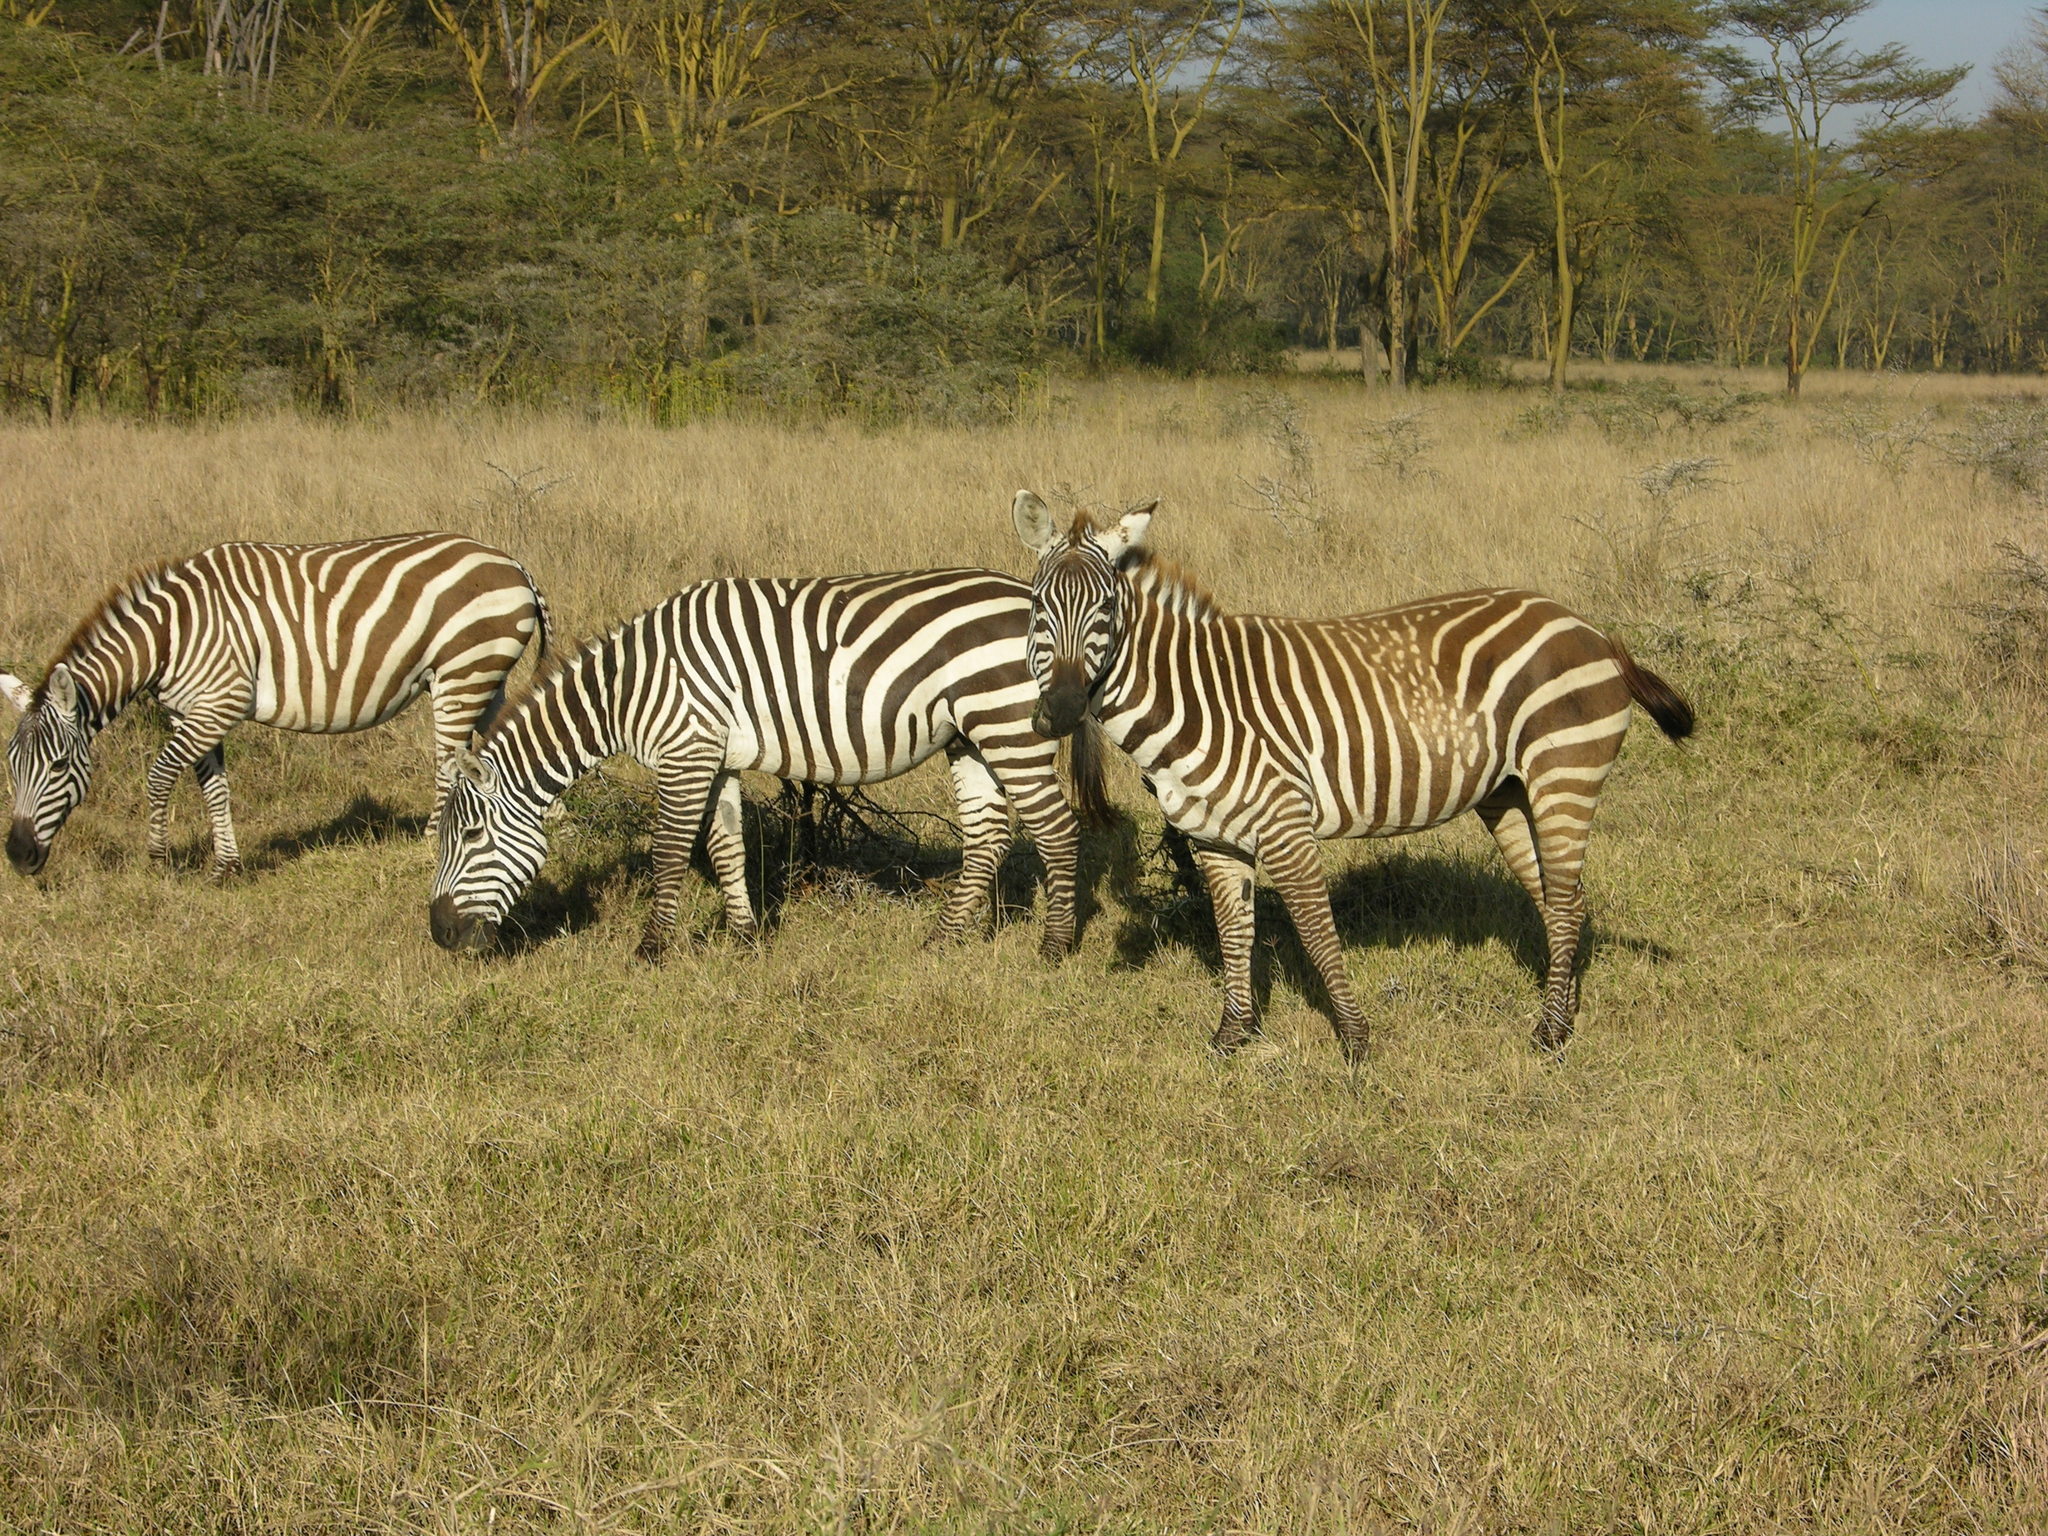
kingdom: Animalia
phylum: Chordata
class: Mammalia
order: Perissodactyla
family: Equidae
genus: Equus
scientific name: Equus quagga
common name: Plains zebra
